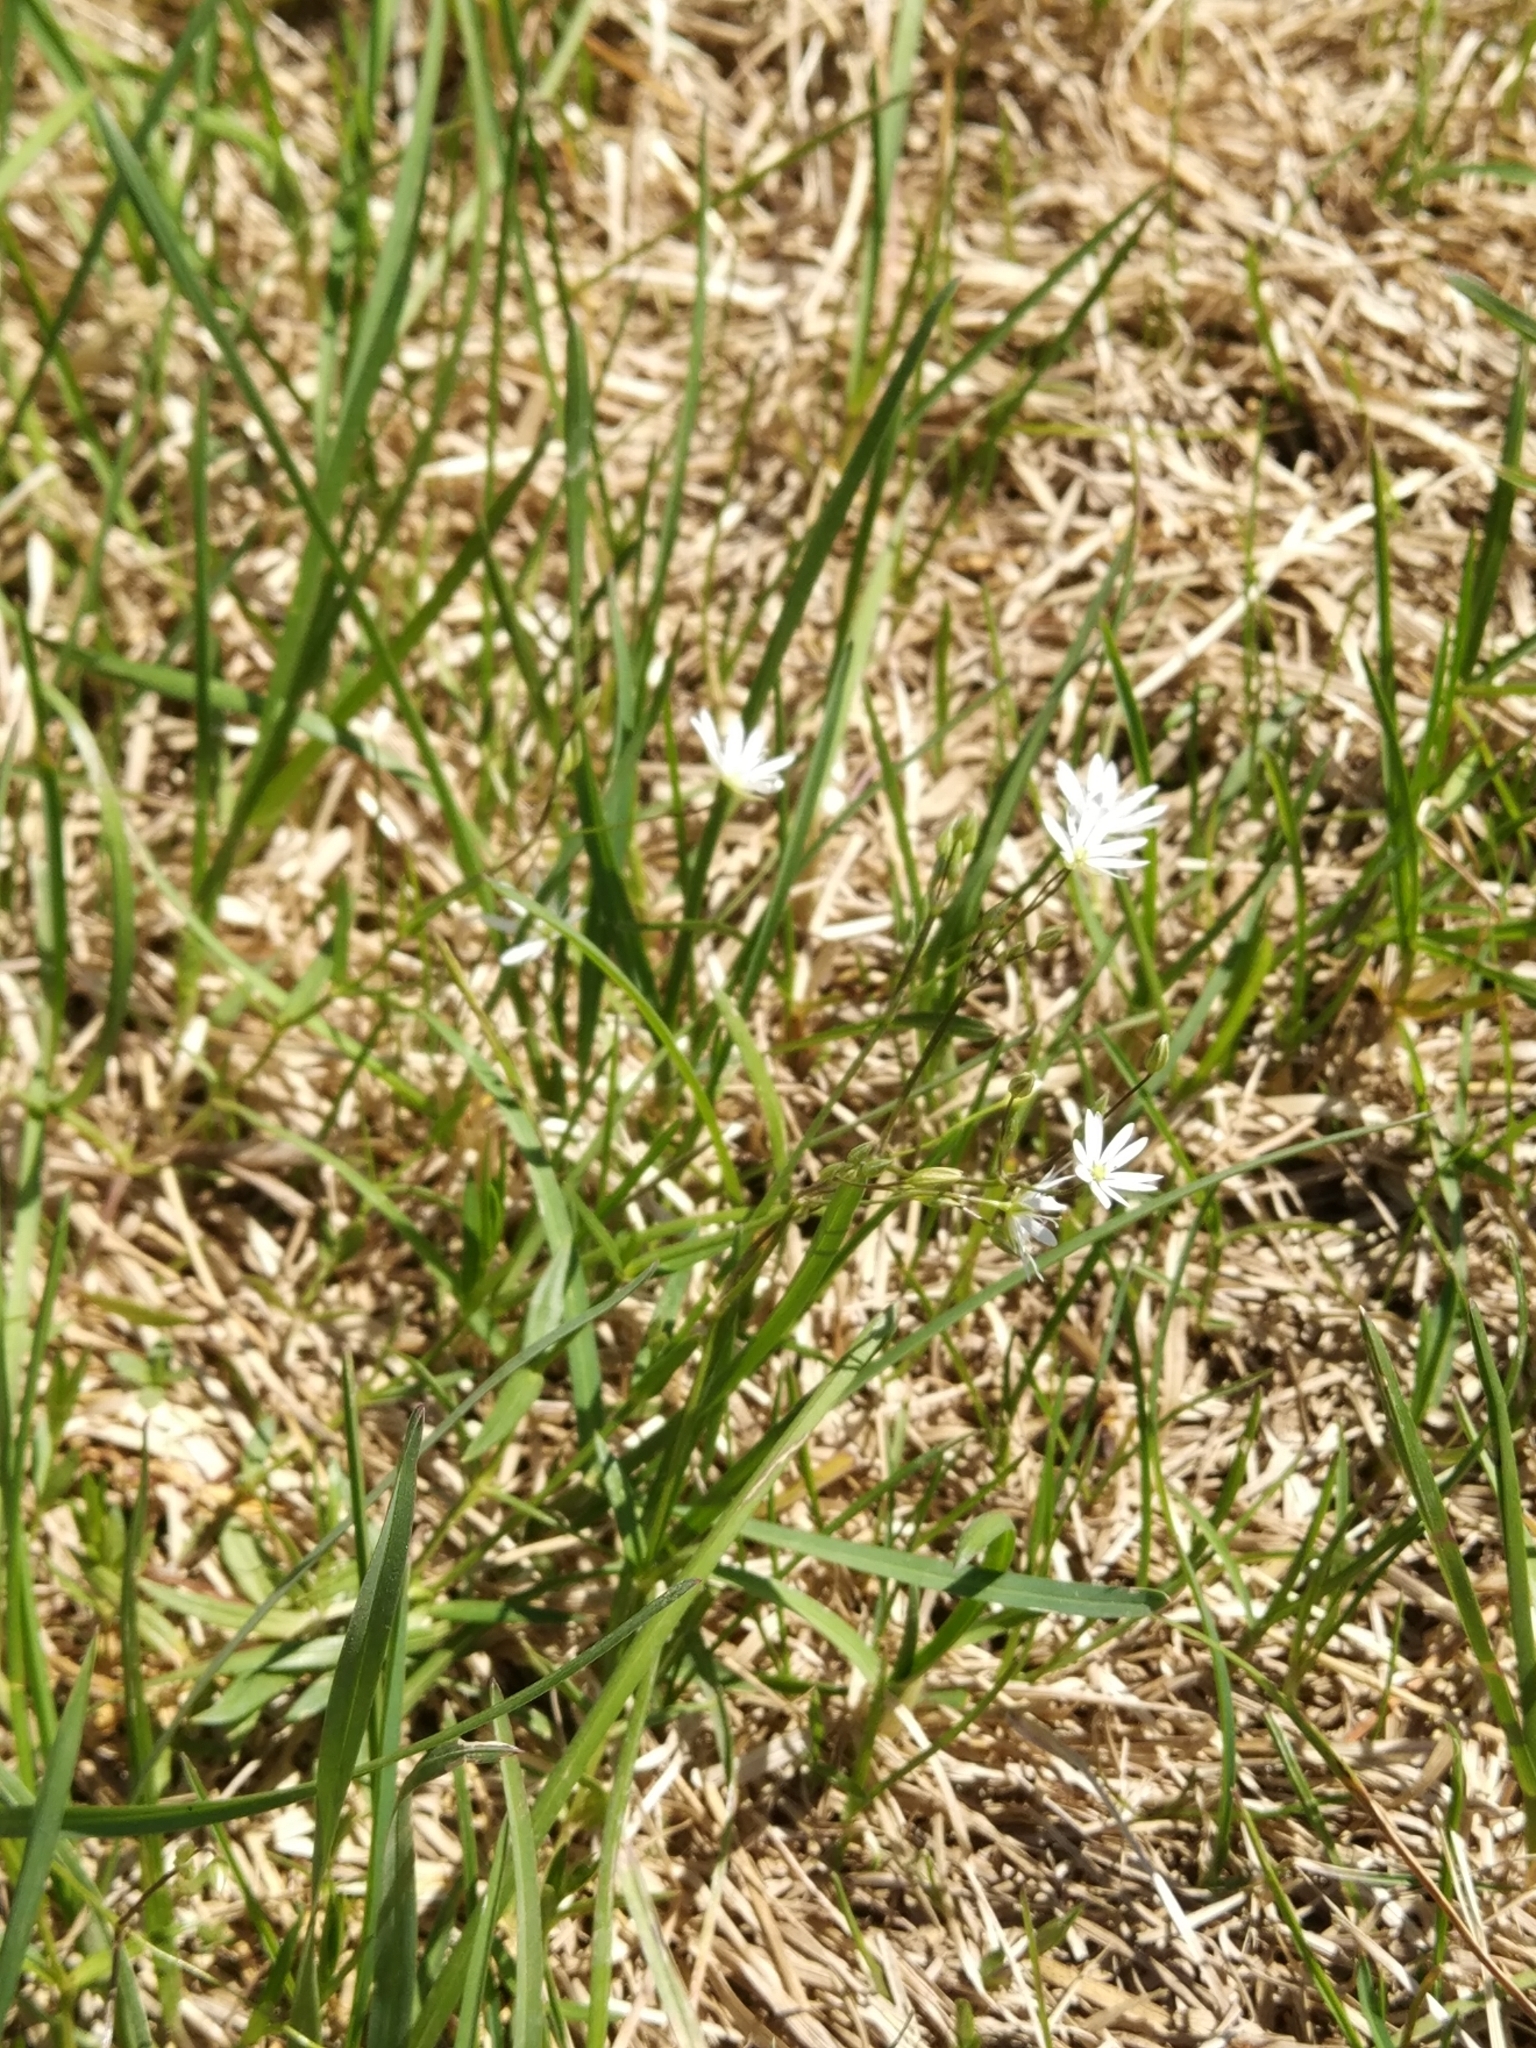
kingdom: Plantae
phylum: Tracheophyta
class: Magnoliopsida
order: Caryophyllales
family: Caryophyllaceae
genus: Stellaria
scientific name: Stellaria graminea
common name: Grass-like starwort
